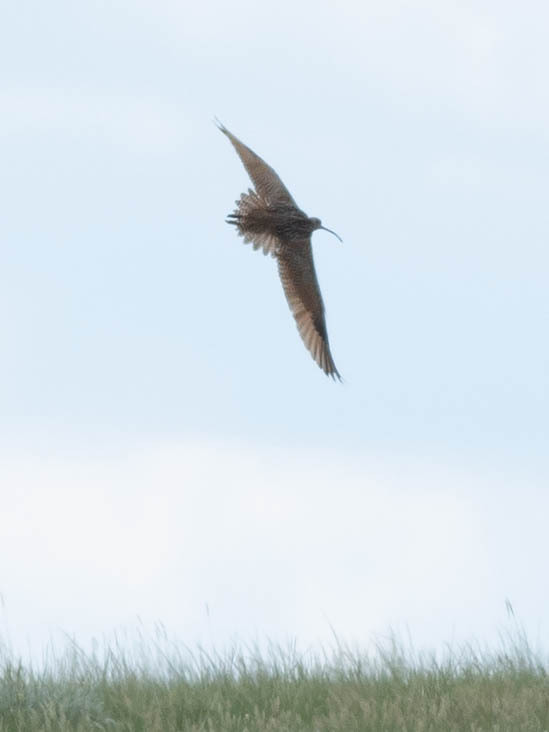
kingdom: Animalia
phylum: Chordata
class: Aves
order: Charadriiformes
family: Scolopacidae
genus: Numenius
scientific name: Numenius americanus
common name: Long-billed curlew
